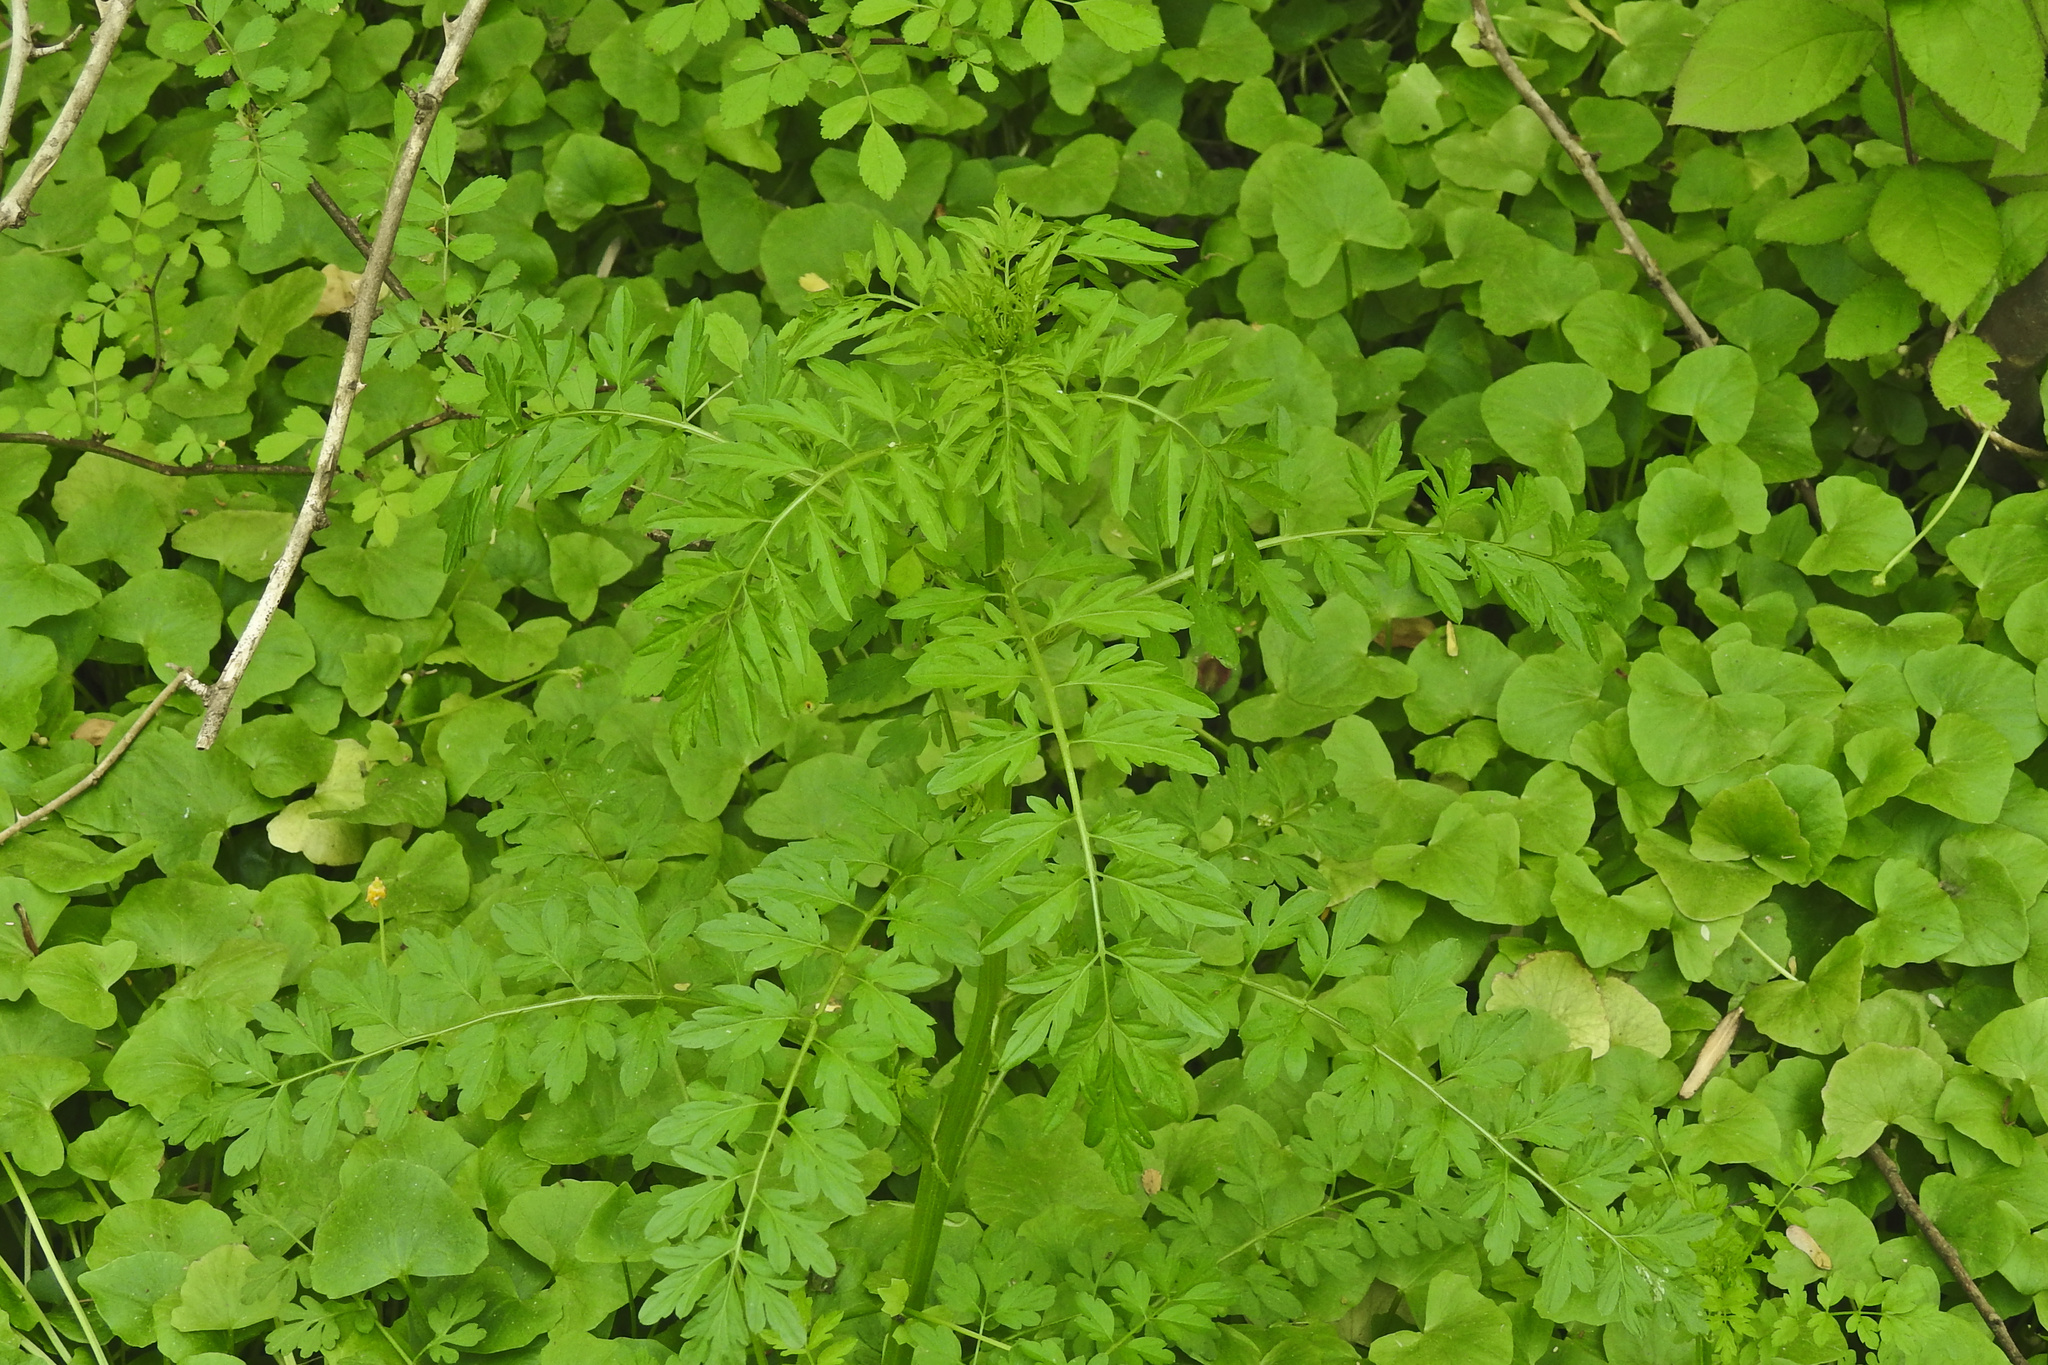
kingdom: Plantae
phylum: Tracheophyta
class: Magnoliopsida
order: Brassicales
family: Brassicaceae
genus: Cardamine
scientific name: Cardamine impatiens
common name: Narrow-leaved bitter-cress
